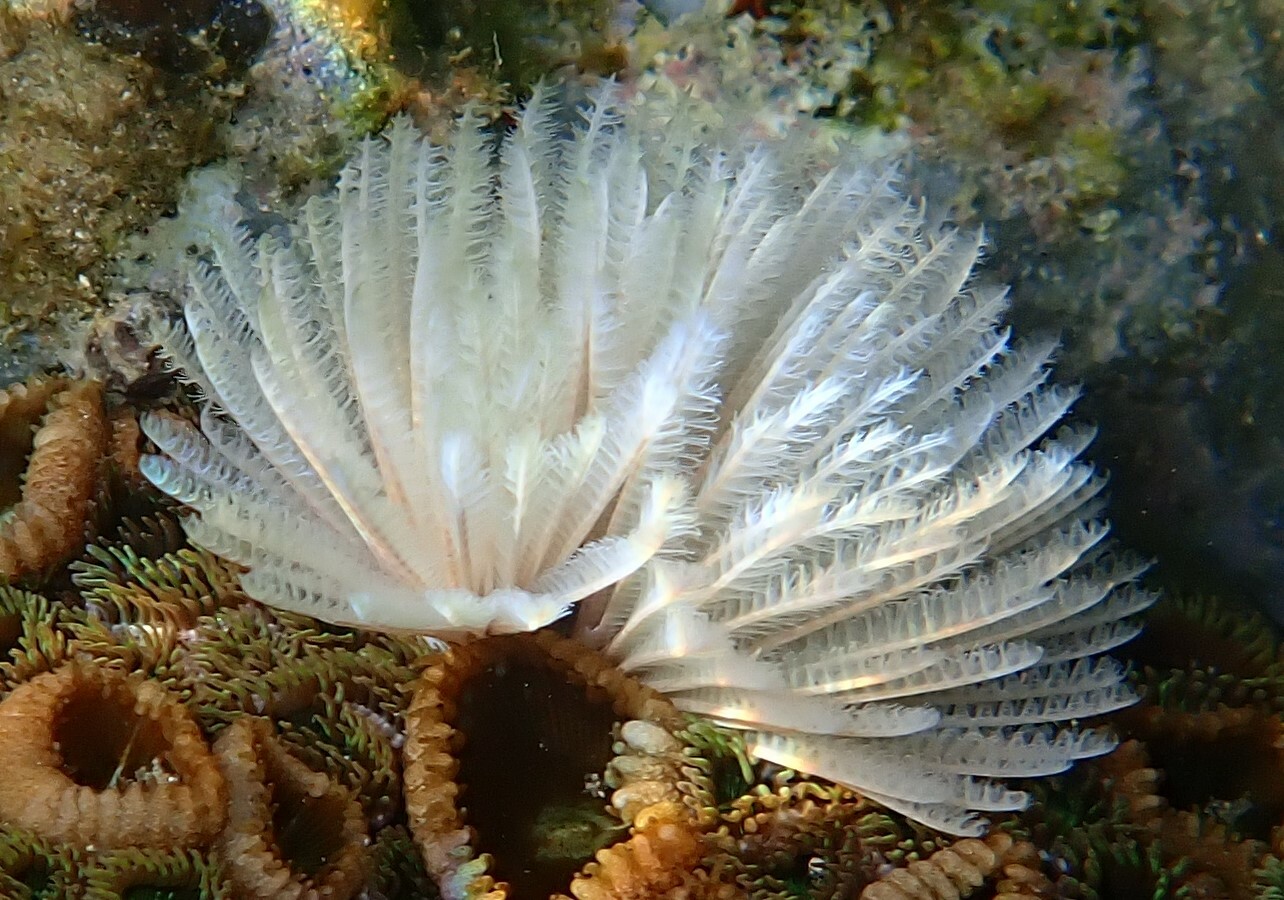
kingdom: Animalia
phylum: Annelida
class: Polychaeta
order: Sabellida
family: Sabellidae
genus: Sabellastarte
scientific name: Sabellastarte australiensis
